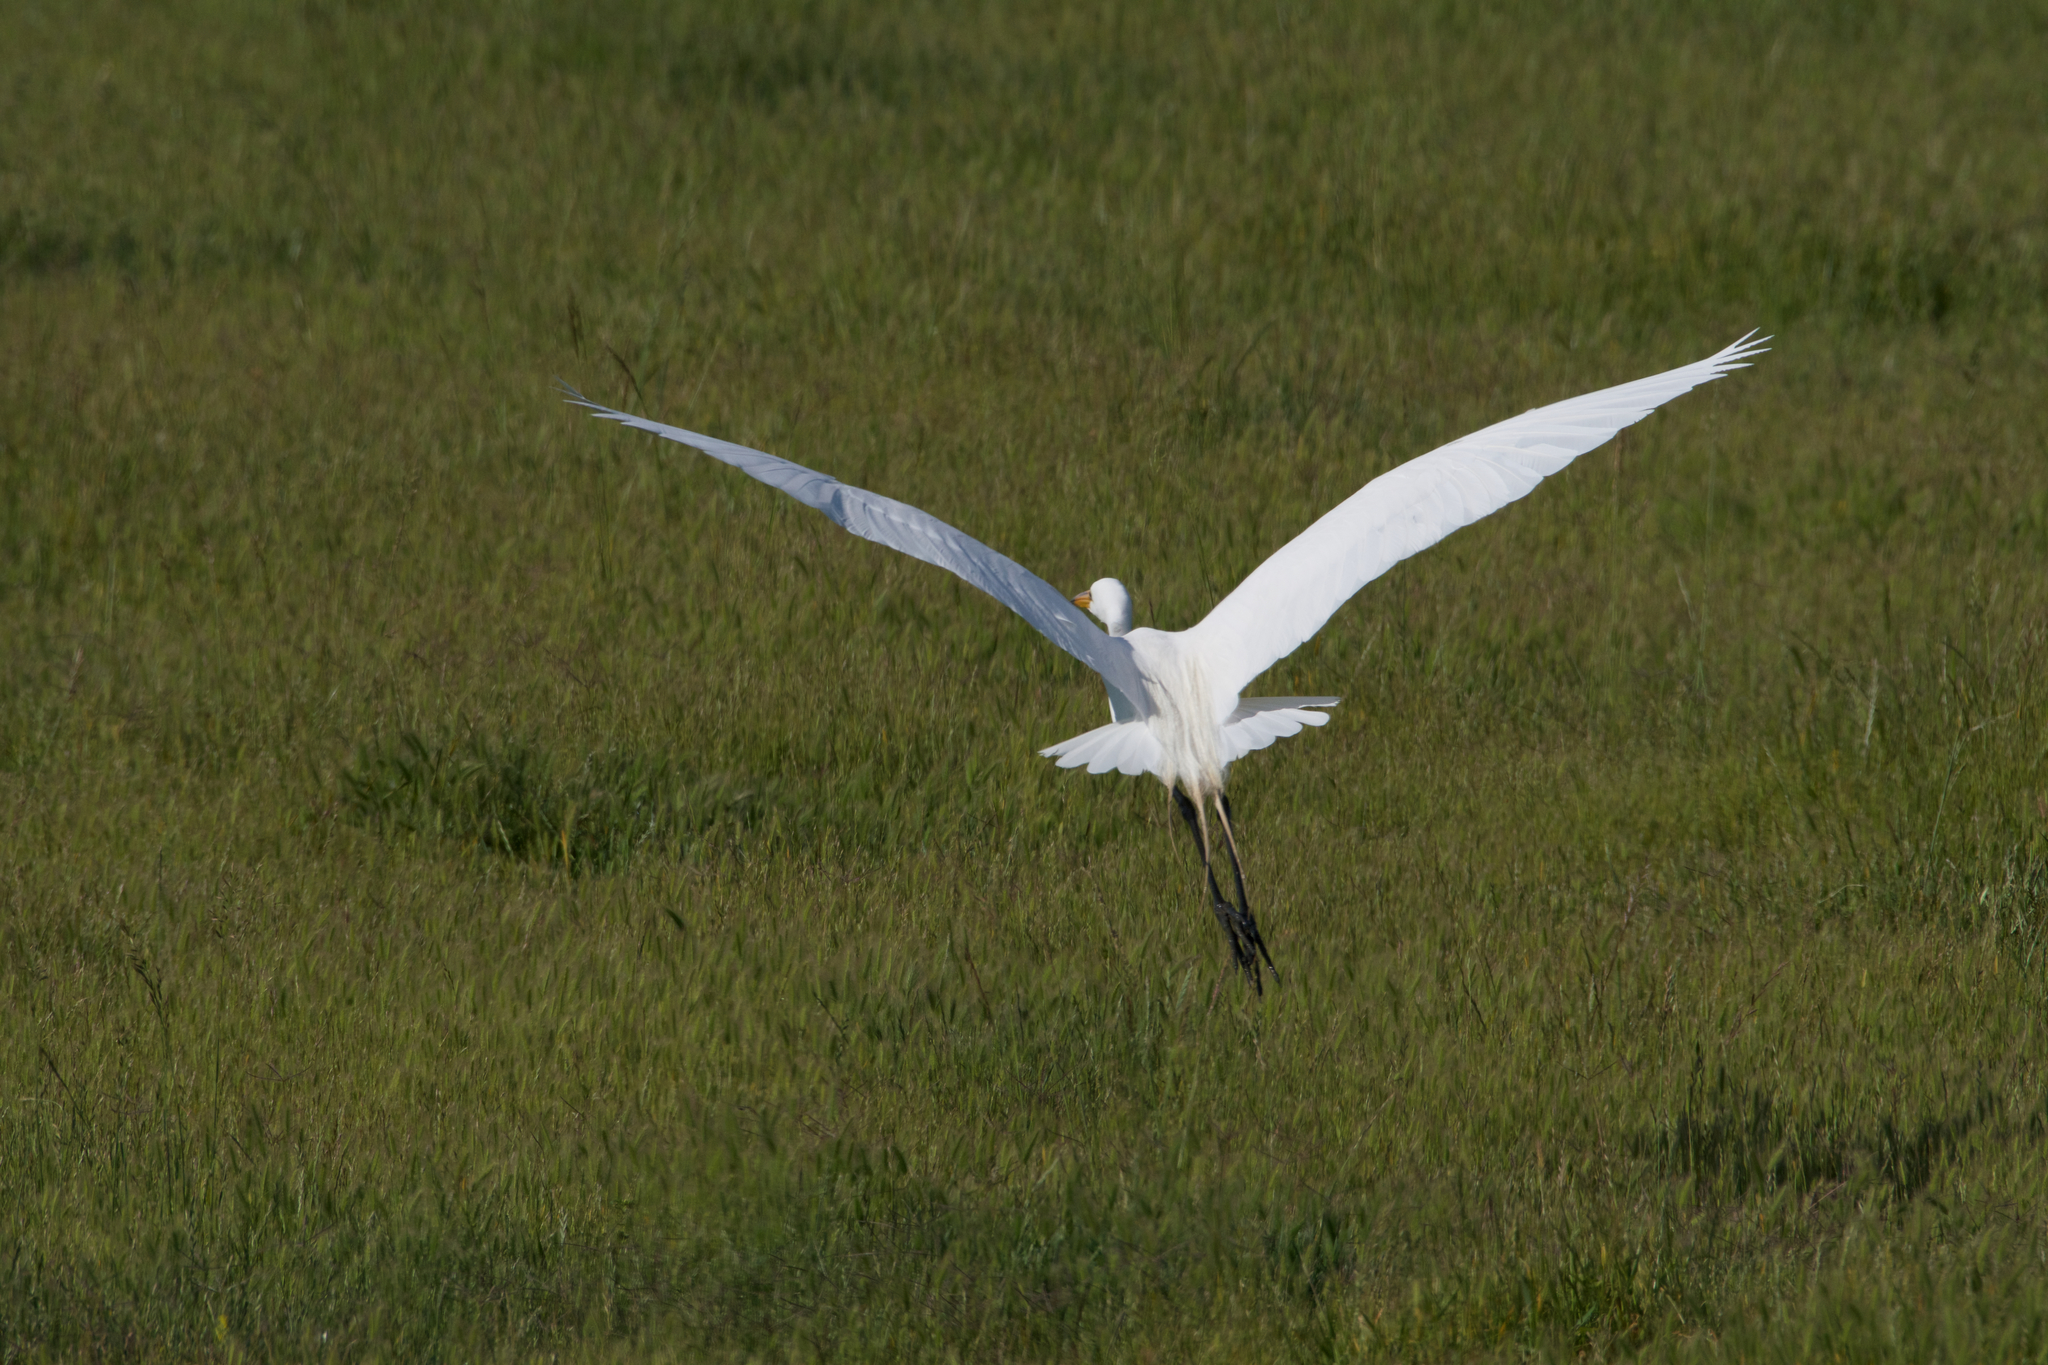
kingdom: Animalia
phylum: Chordata
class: Aves
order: Pelecaniformes
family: Ardeidae
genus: Ardea
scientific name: Ardea alba
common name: Great egret
